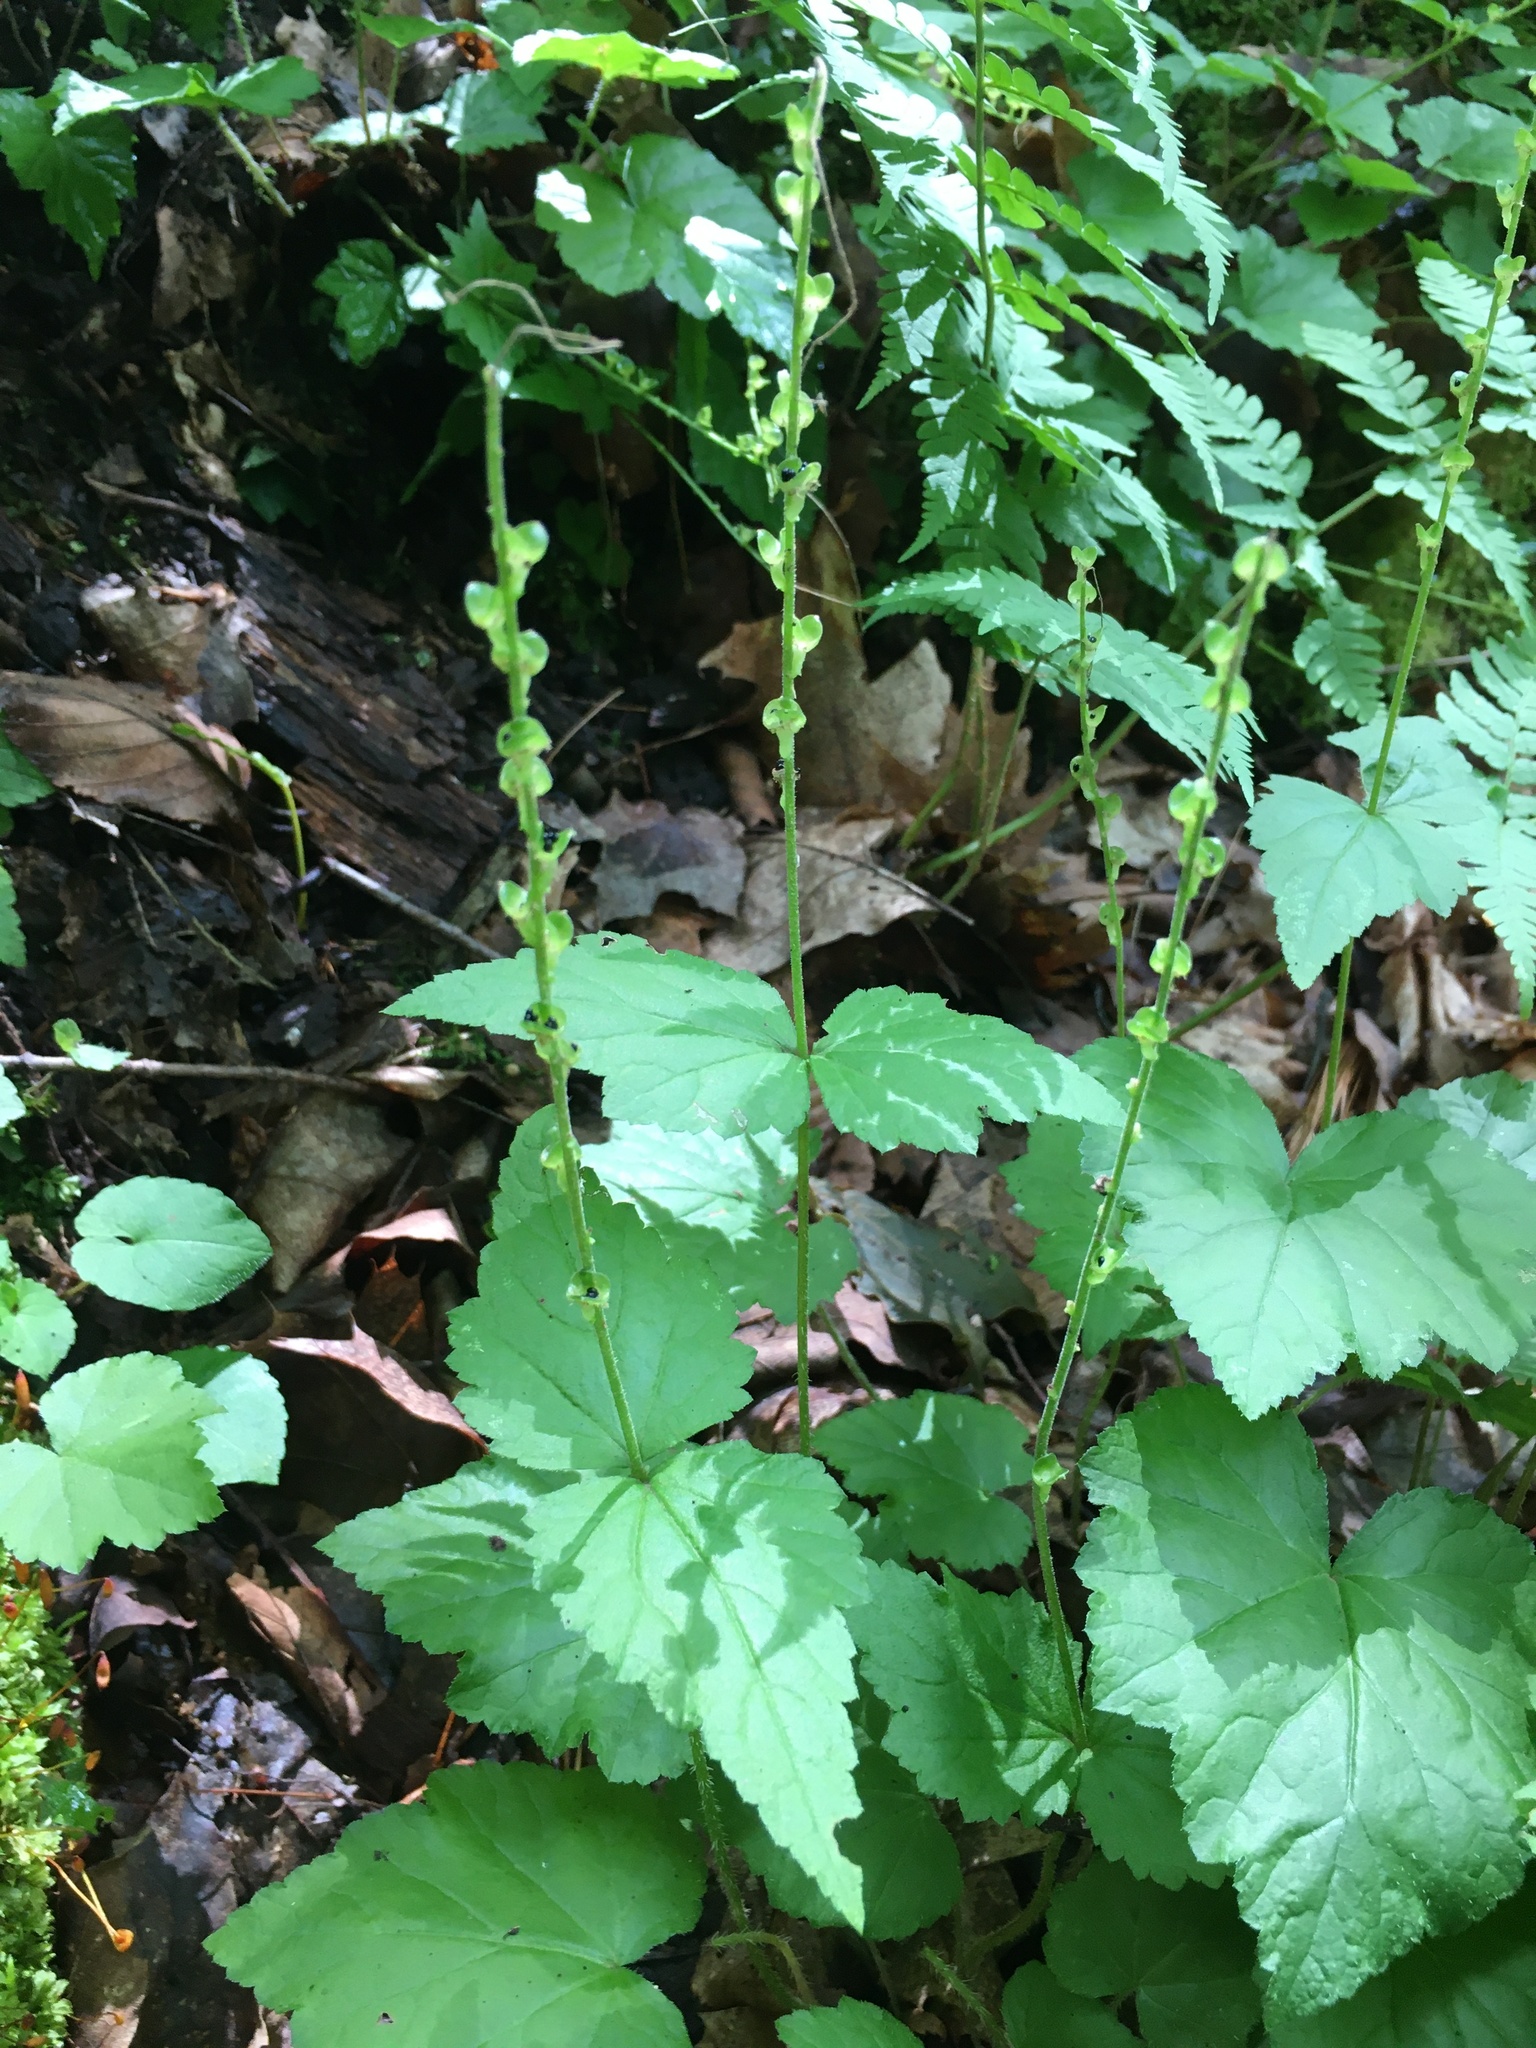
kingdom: Plantae
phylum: Tracheophyta
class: Magnoliopsida
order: Saxifragales
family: Saxifragaceae
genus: Mitella
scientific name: Mitella diphylla
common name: Coolwort
